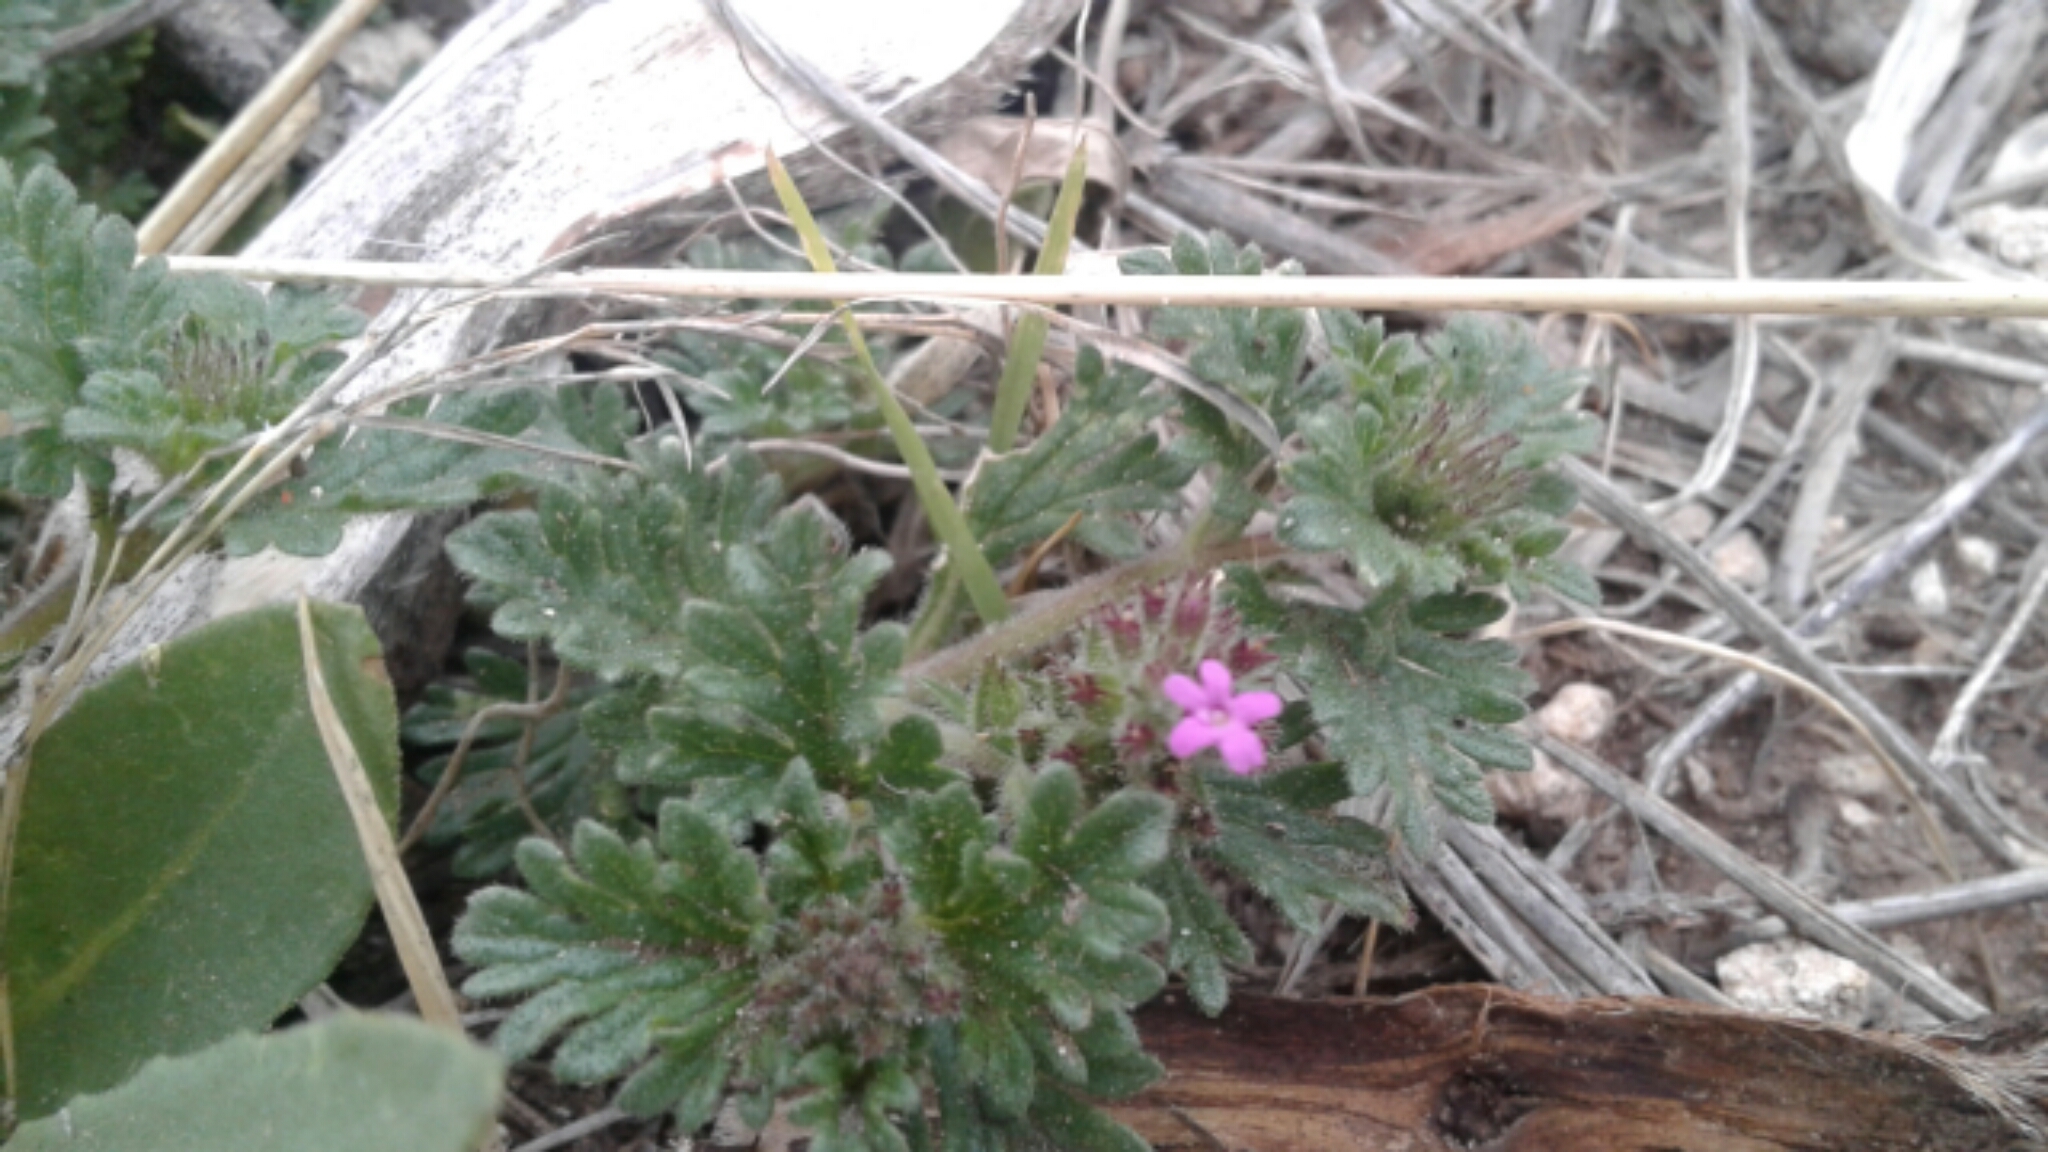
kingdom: Plantae
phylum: Tracheophyta
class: Magnoliopsida
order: Lamiales
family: Verbenaceae
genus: Verbena
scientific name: Verbena pumila
